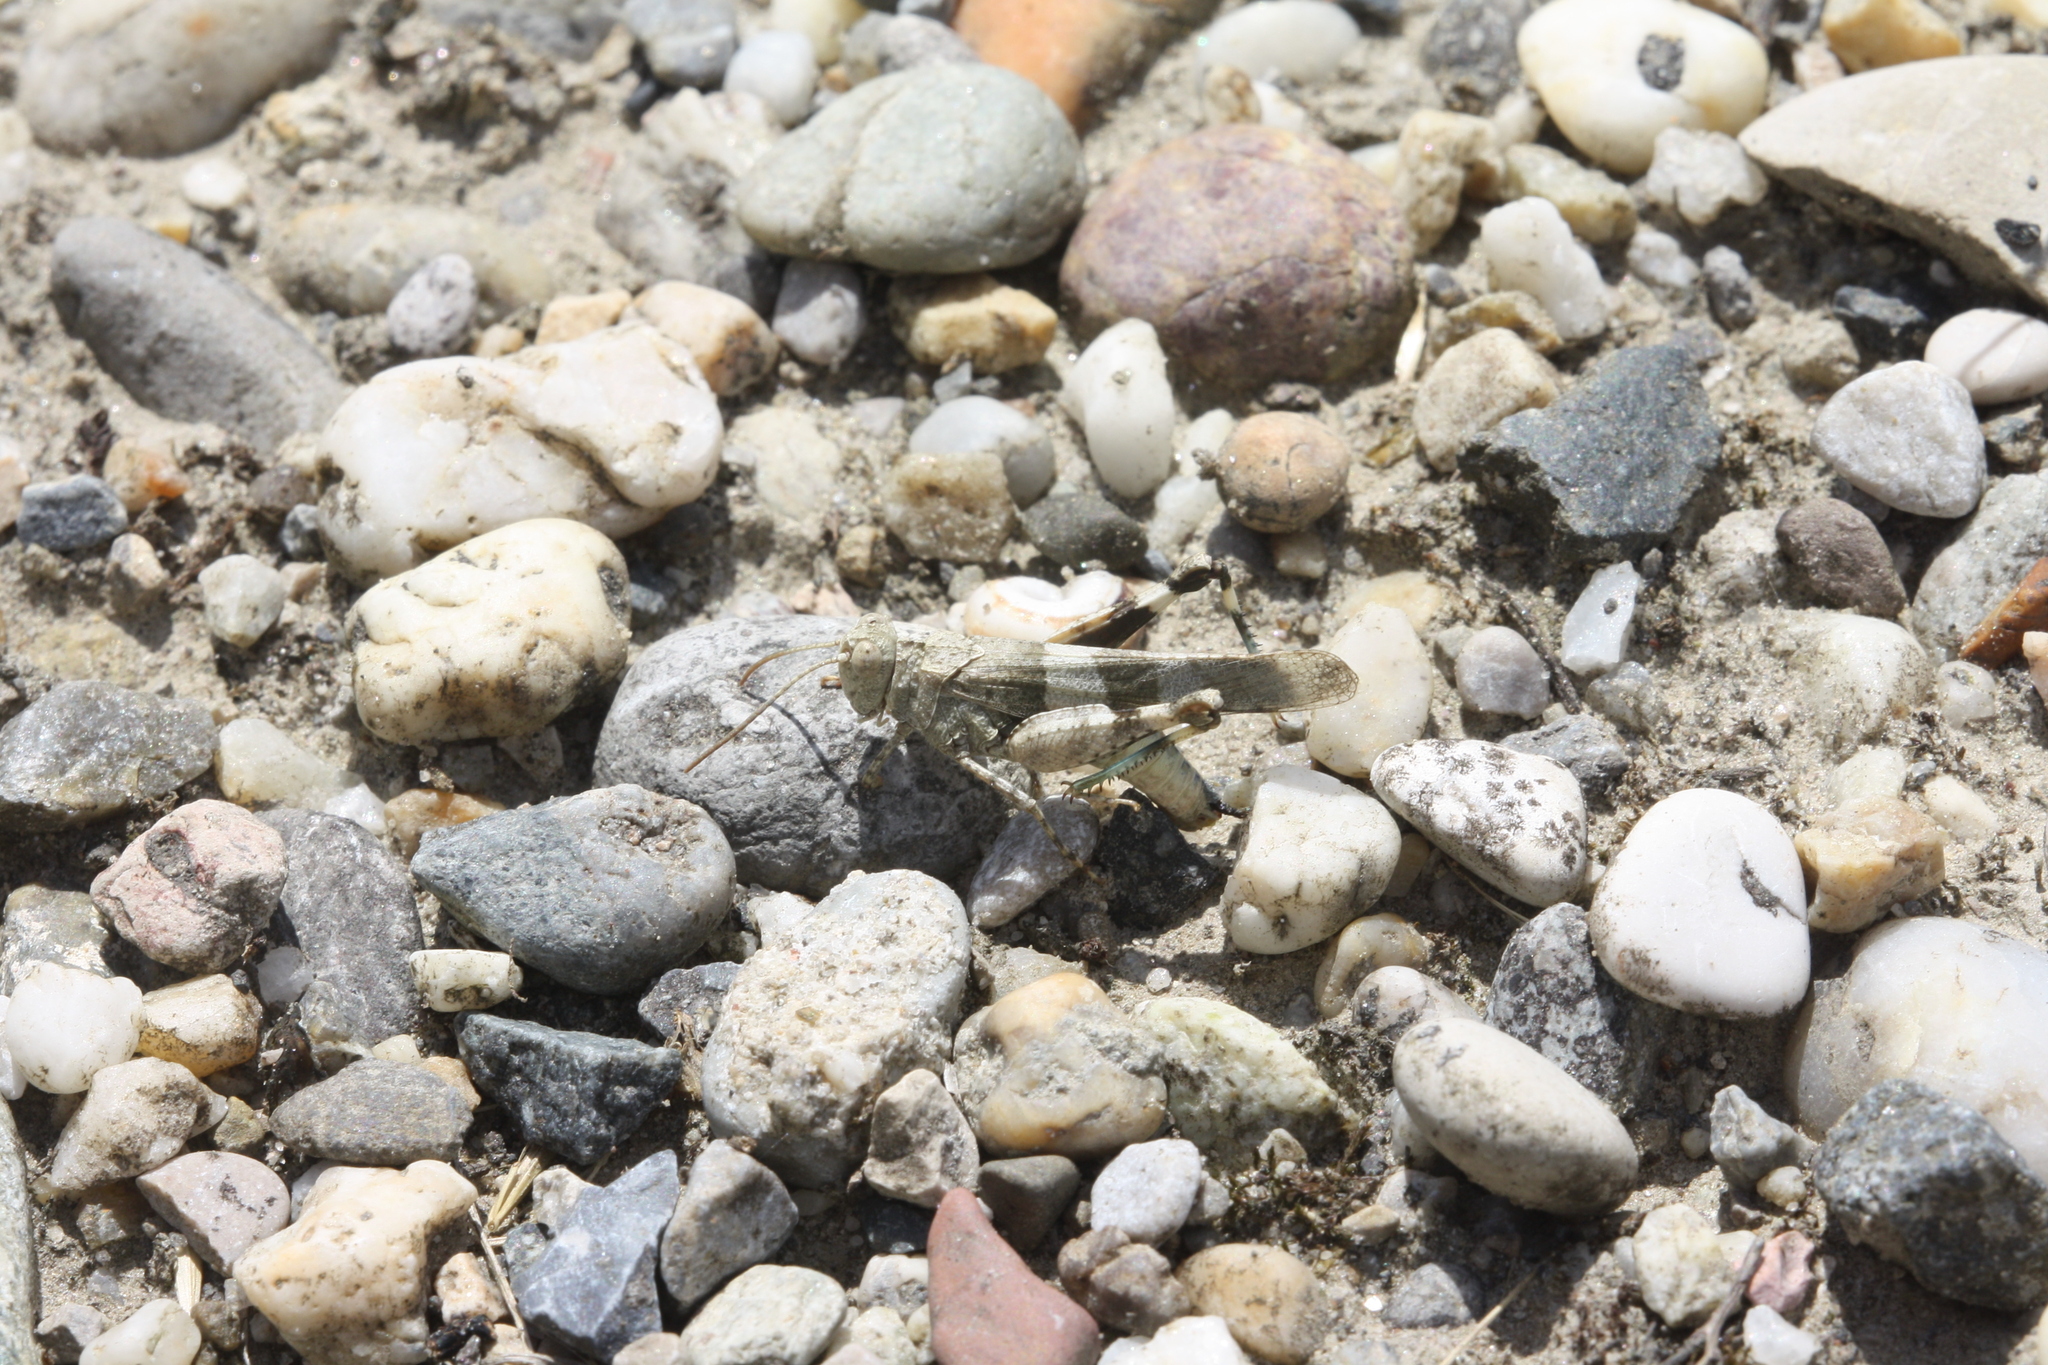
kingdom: Animalia
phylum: Arthropoda
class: Insecta
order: Orthoptera
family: Acrididae
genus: Oedipoda
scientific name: Oedipoda caerulescens
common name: Blue-winged grasshopper
